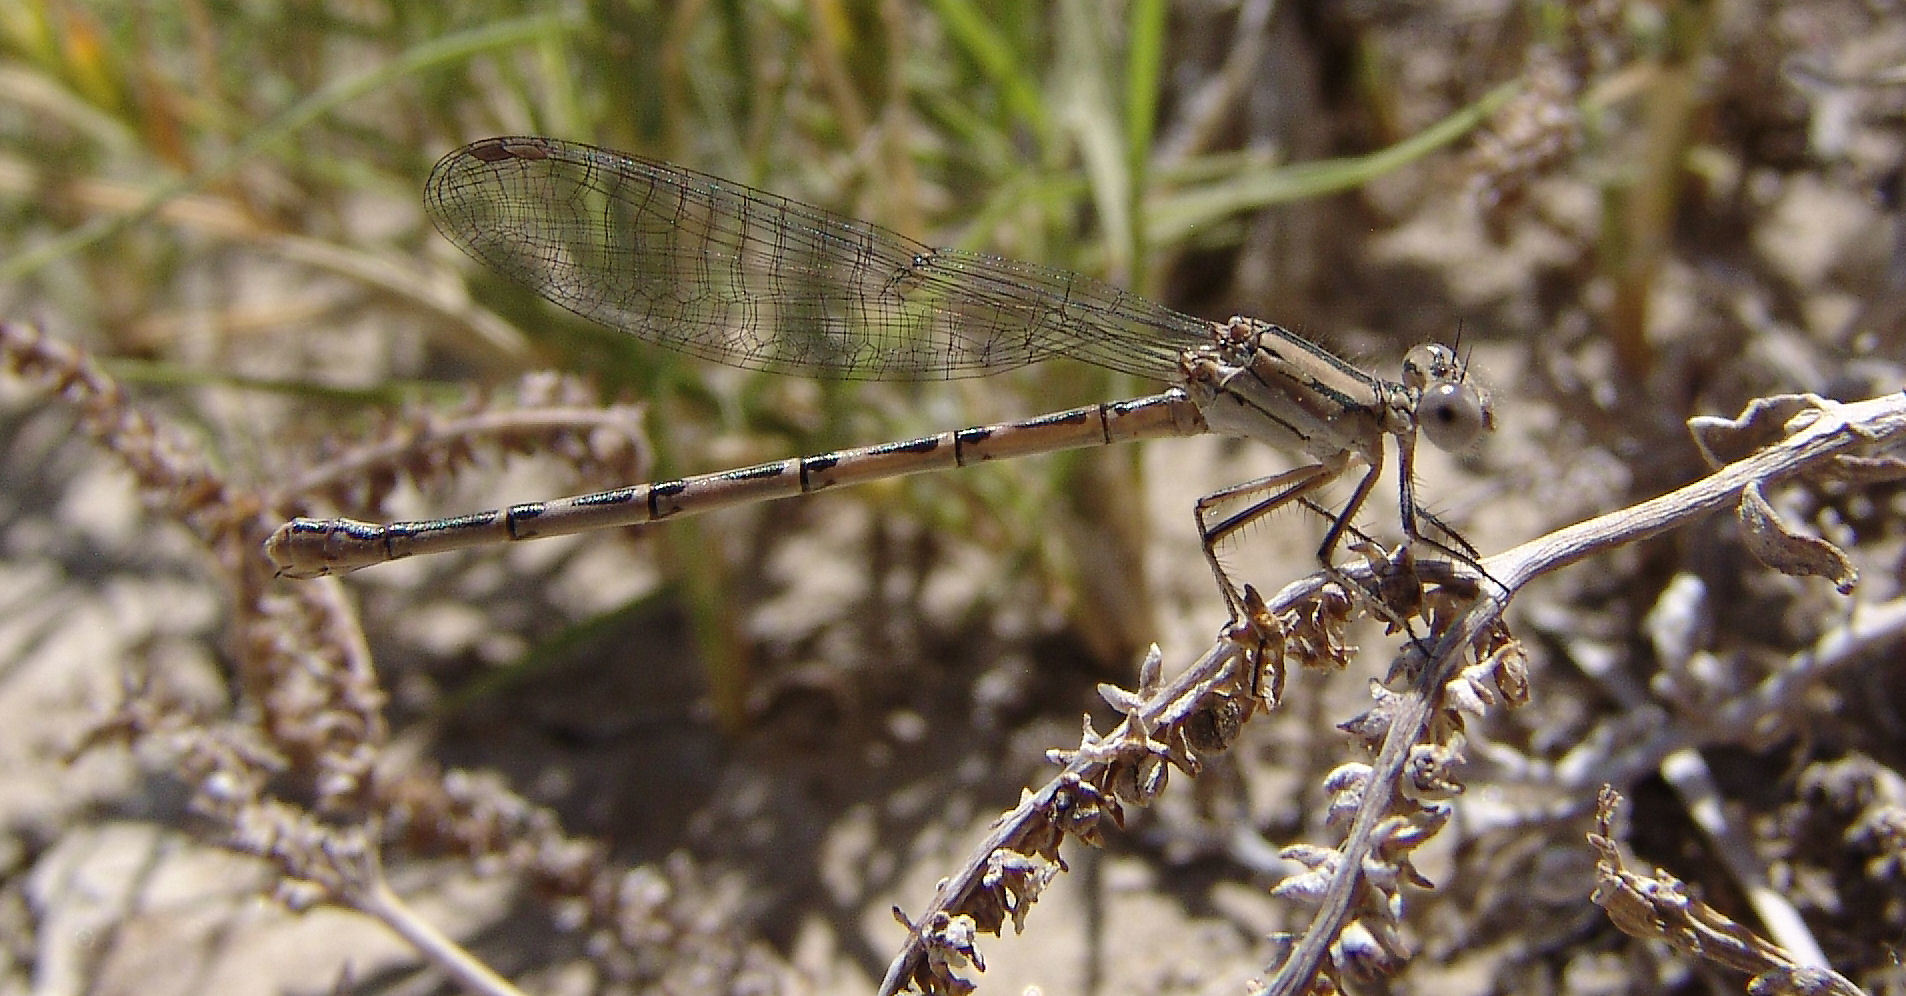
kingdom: Animalia
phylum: Arthropoda
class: Insecta
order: Odonata
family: Coenagrionidae
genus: Argia
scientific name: Argia
